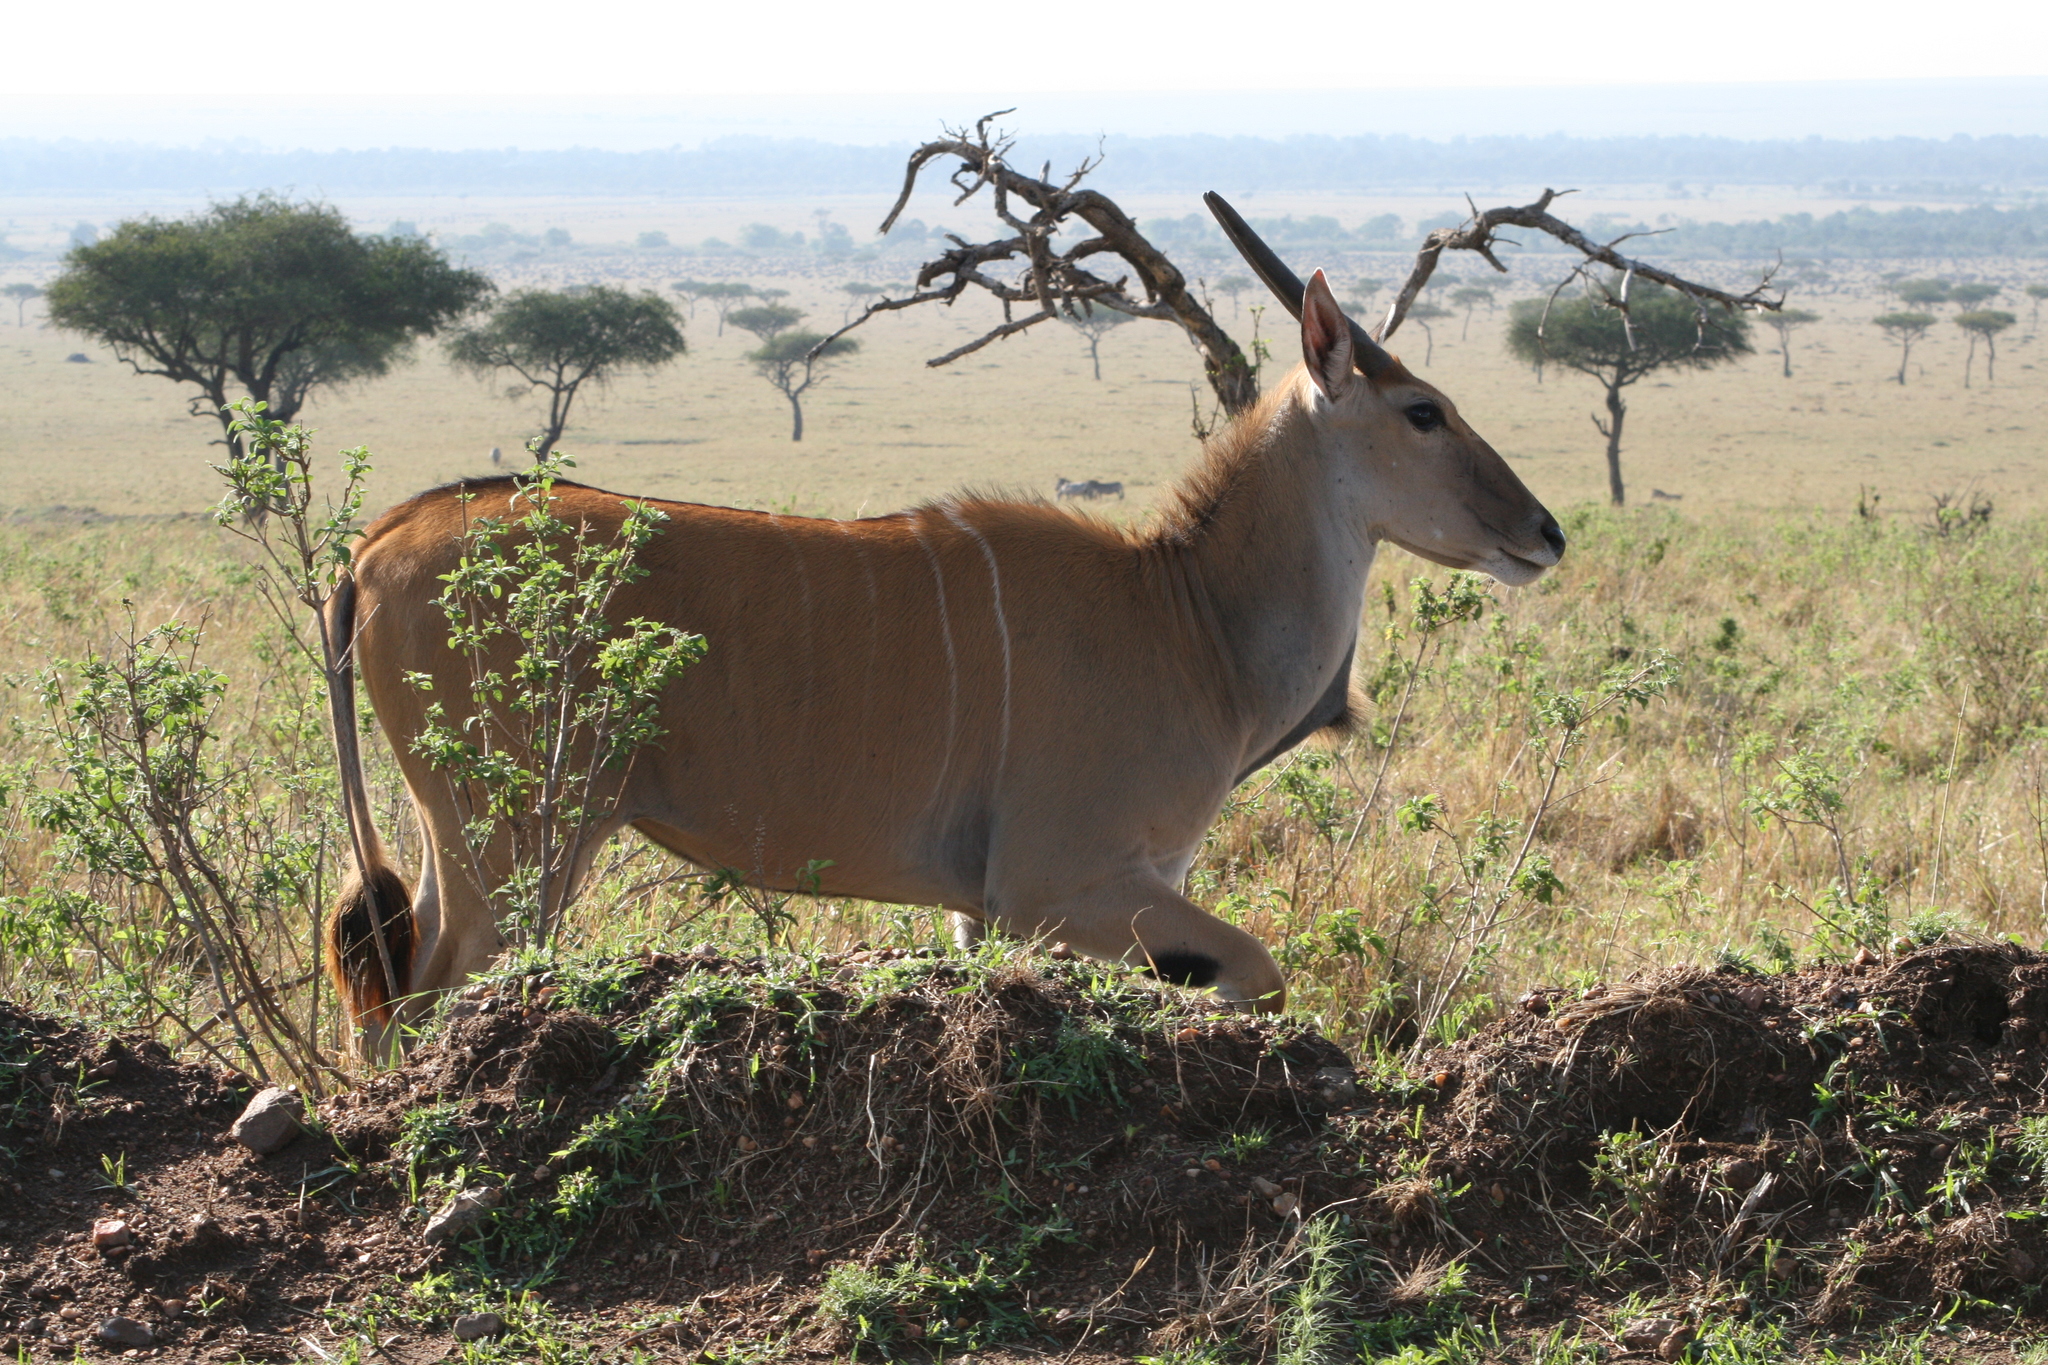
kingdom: Animalia
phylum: Chordata
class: Mammalia
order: Artiodactyla
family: Bovidae
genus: Taurotragus
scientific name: Taurotragus oryx
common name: Common eland
